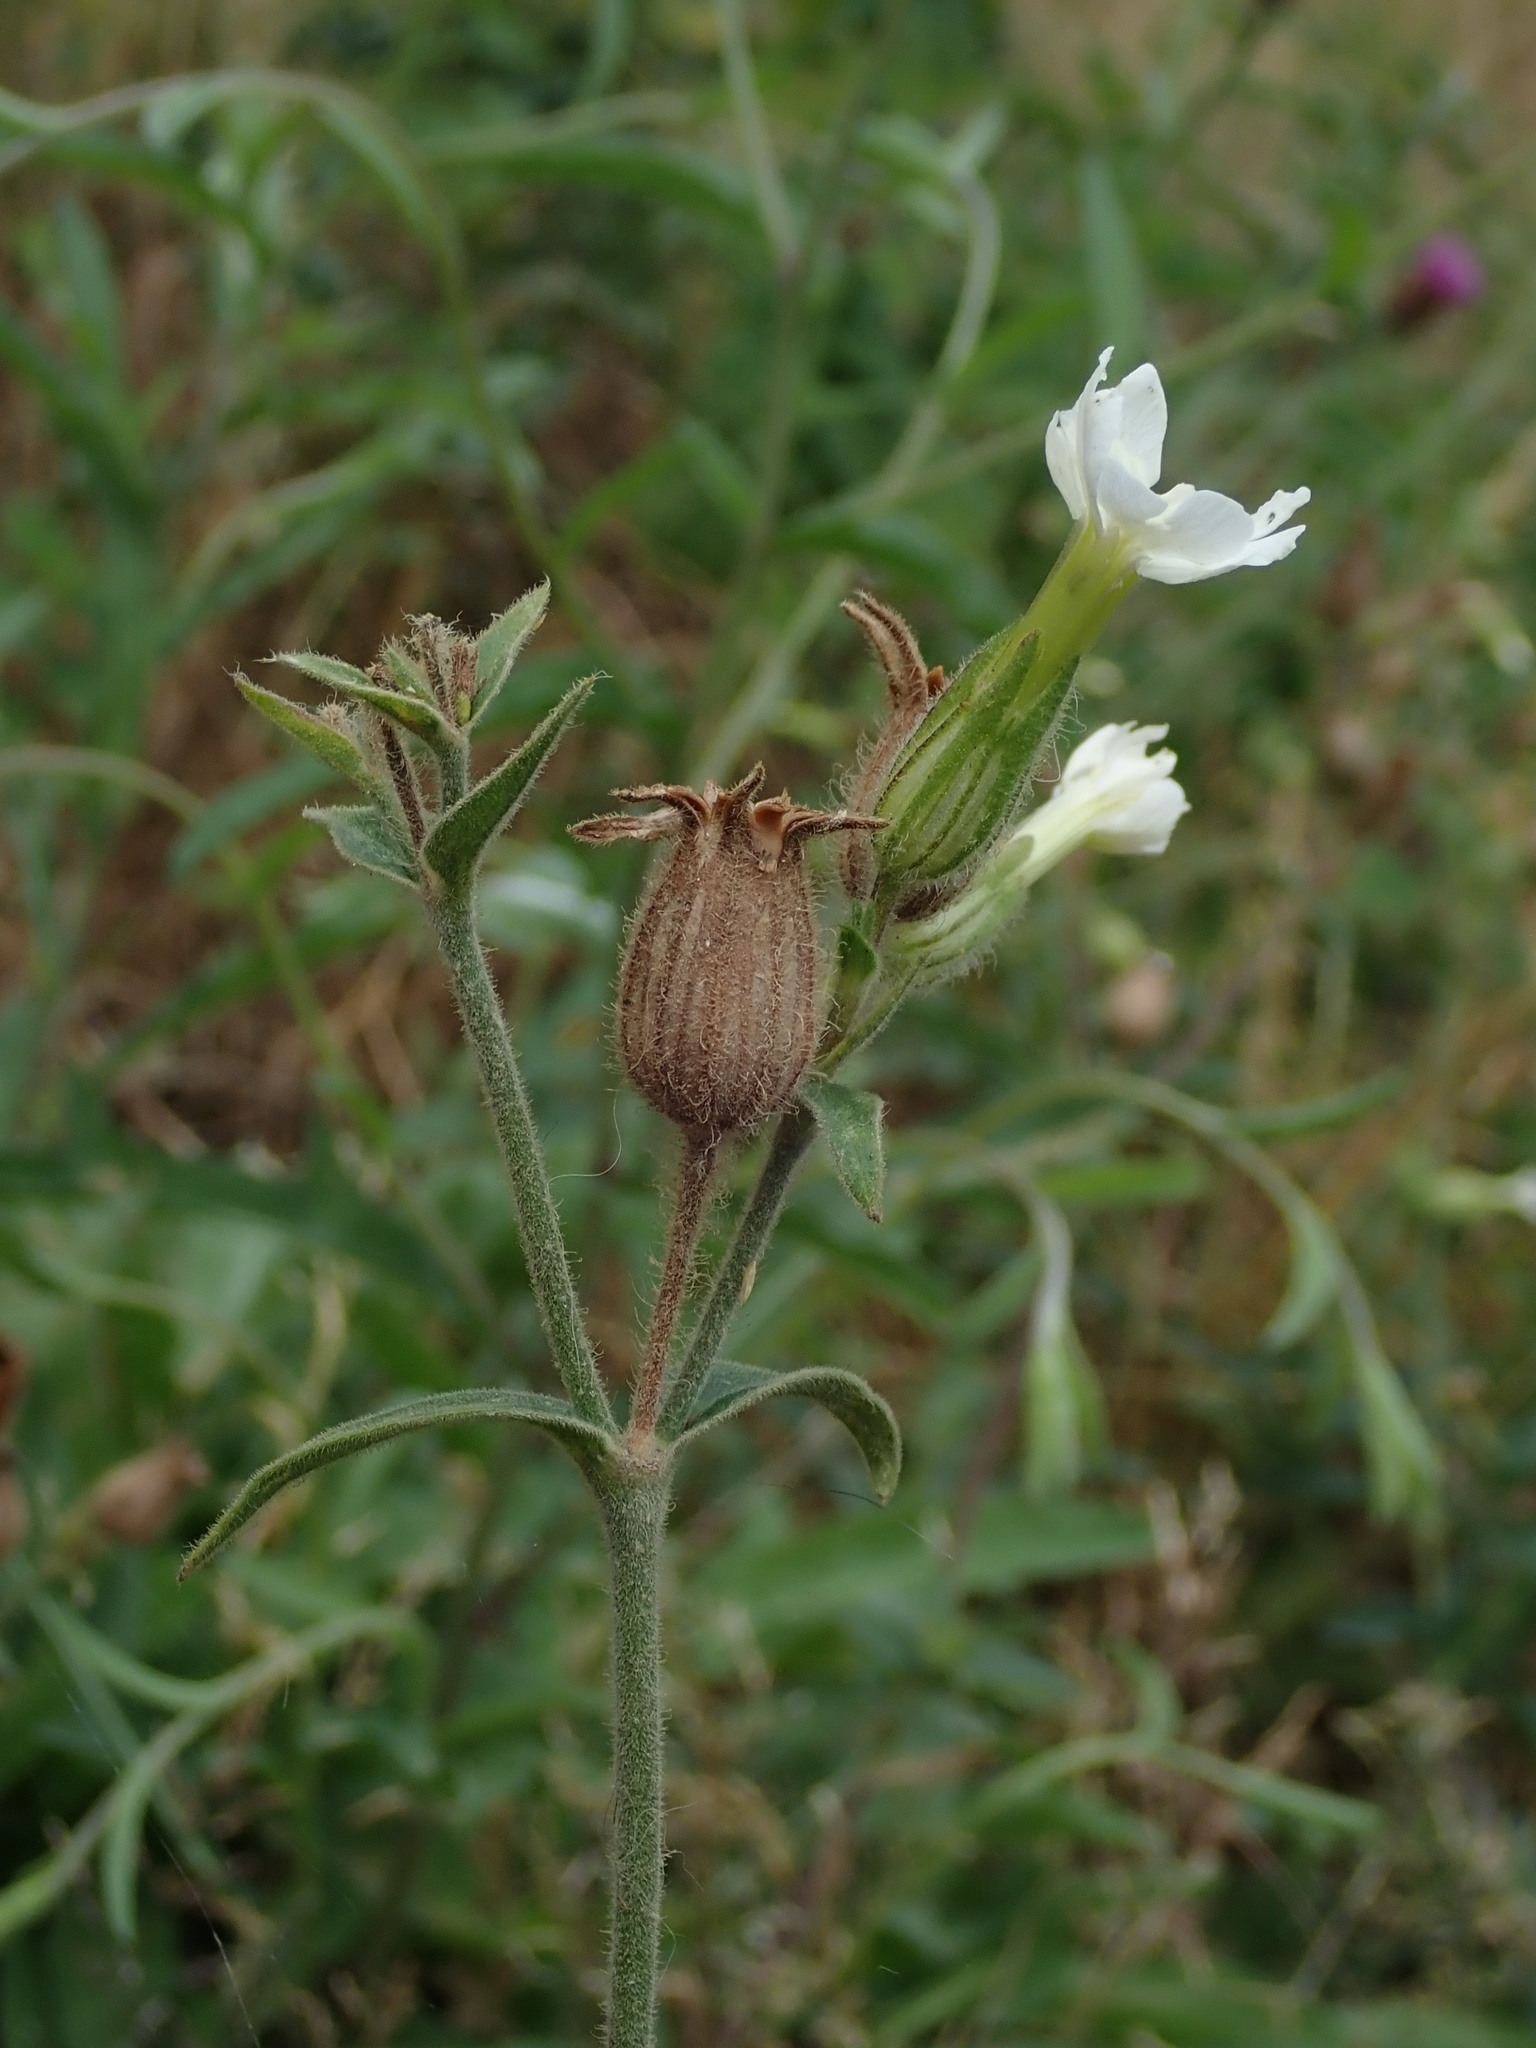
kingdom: Plantae
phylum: Tracheophyta
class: Magnoliopsida
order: Caryophyllales
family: Caryophyllaceae
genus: Silene
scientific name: Silene latifolia
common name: White campion
